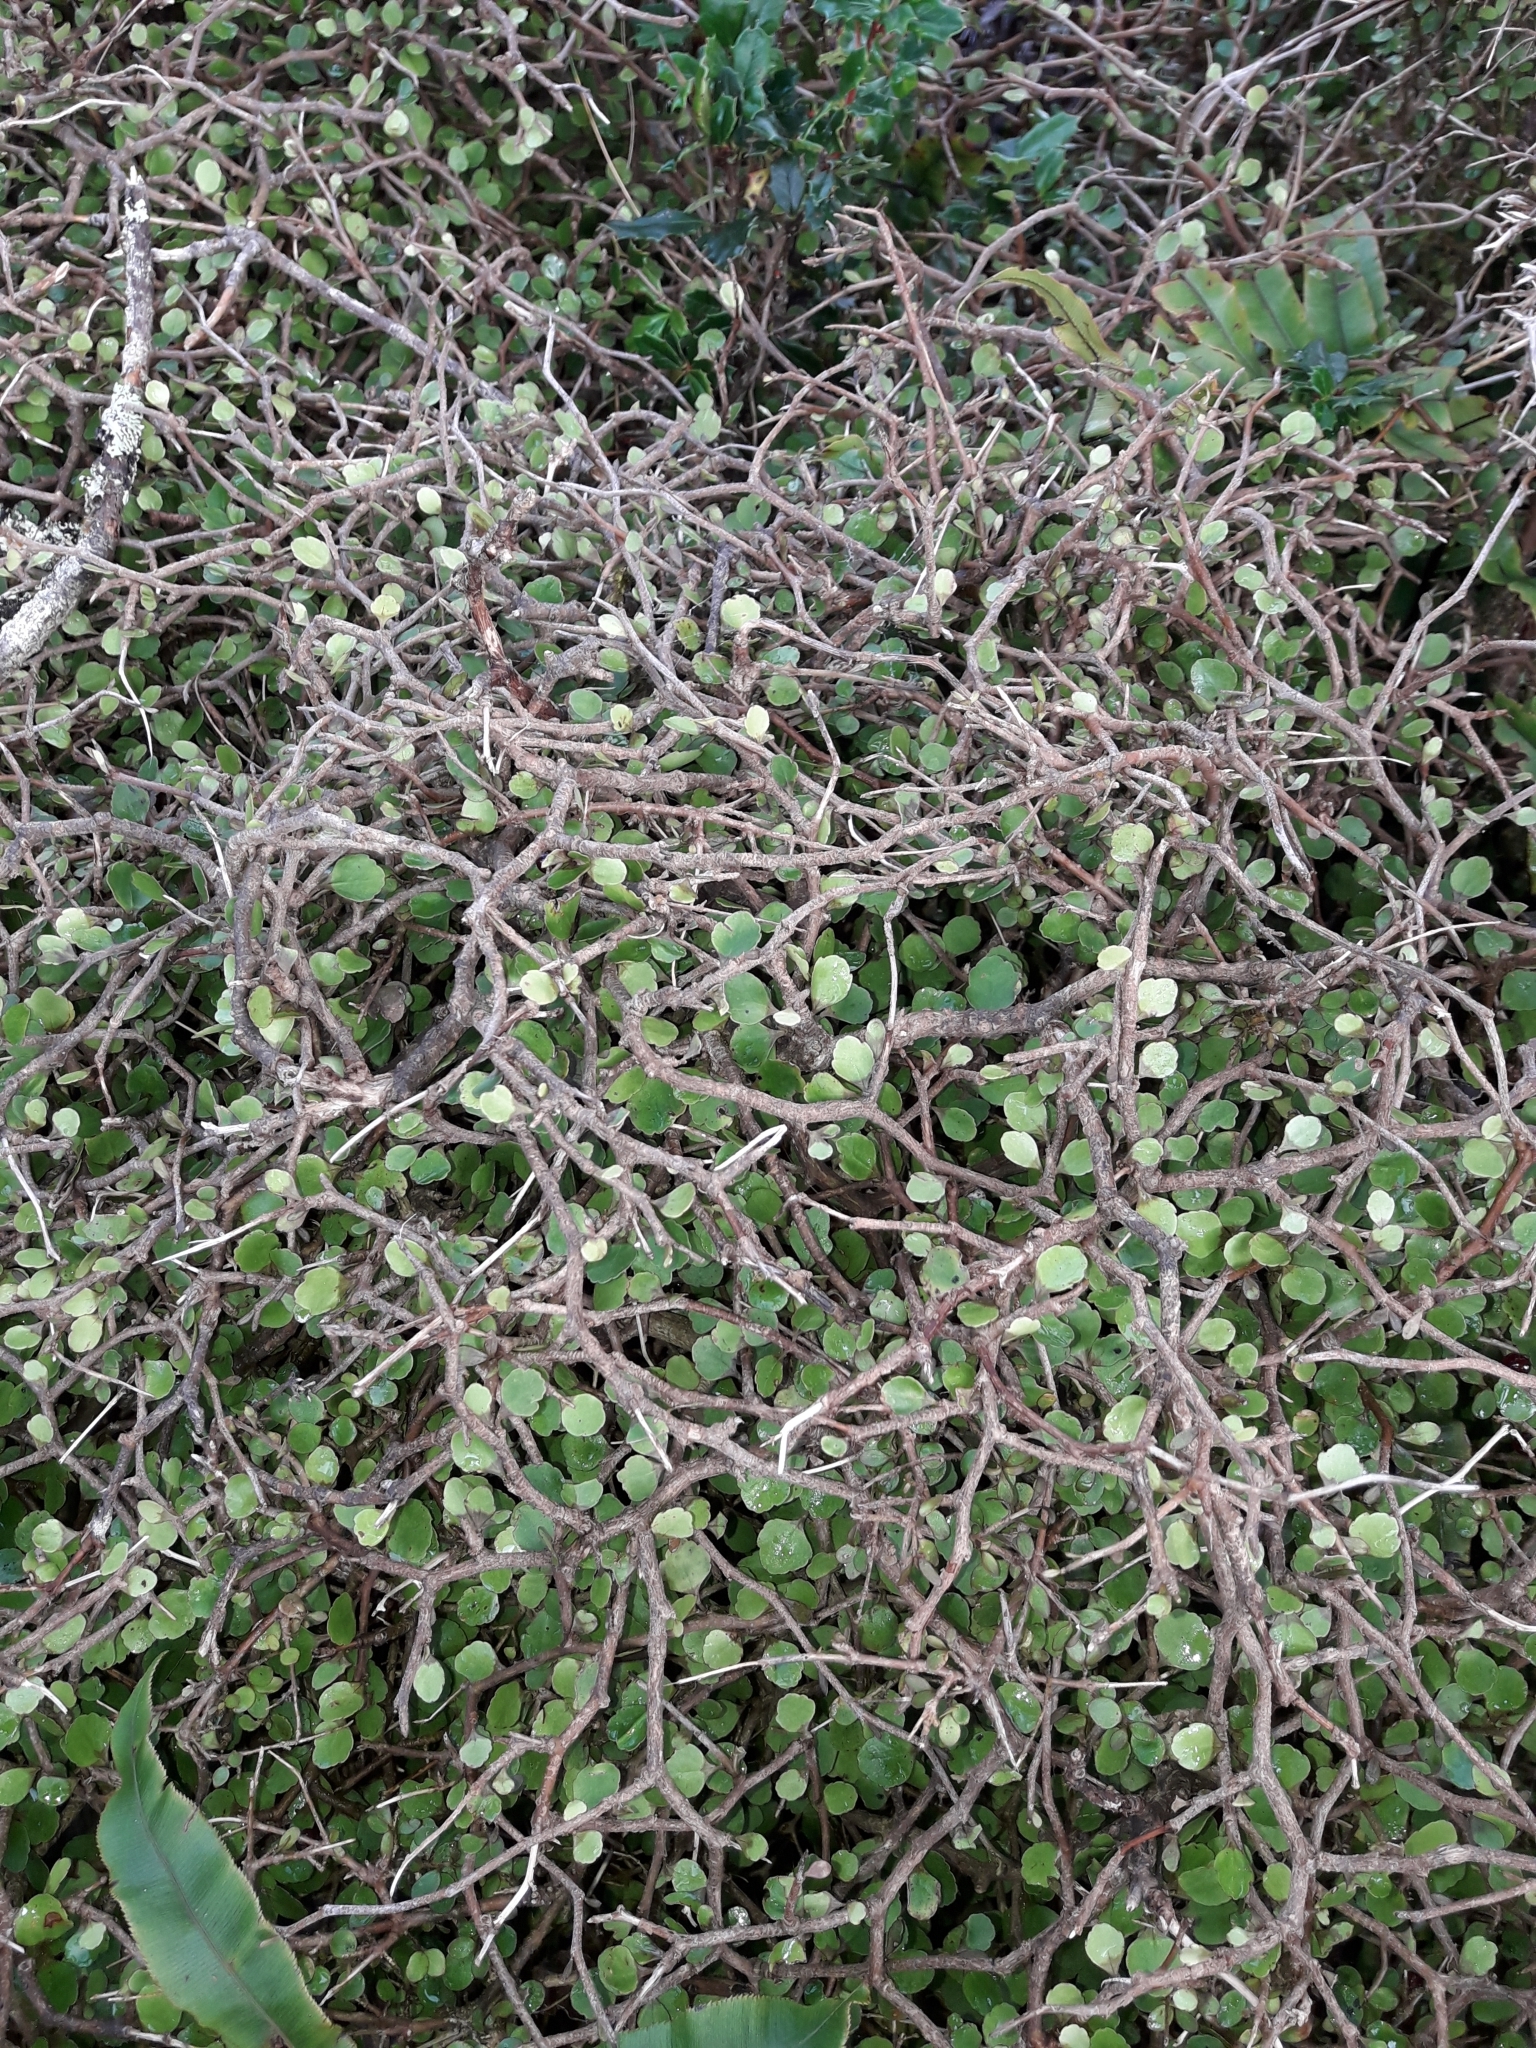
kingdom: Plantae
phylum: Tracheophyta
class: Magnoliopsida
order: Apiales
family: Araliaceae
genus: Raukaua
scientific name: Raukaua anomalus
